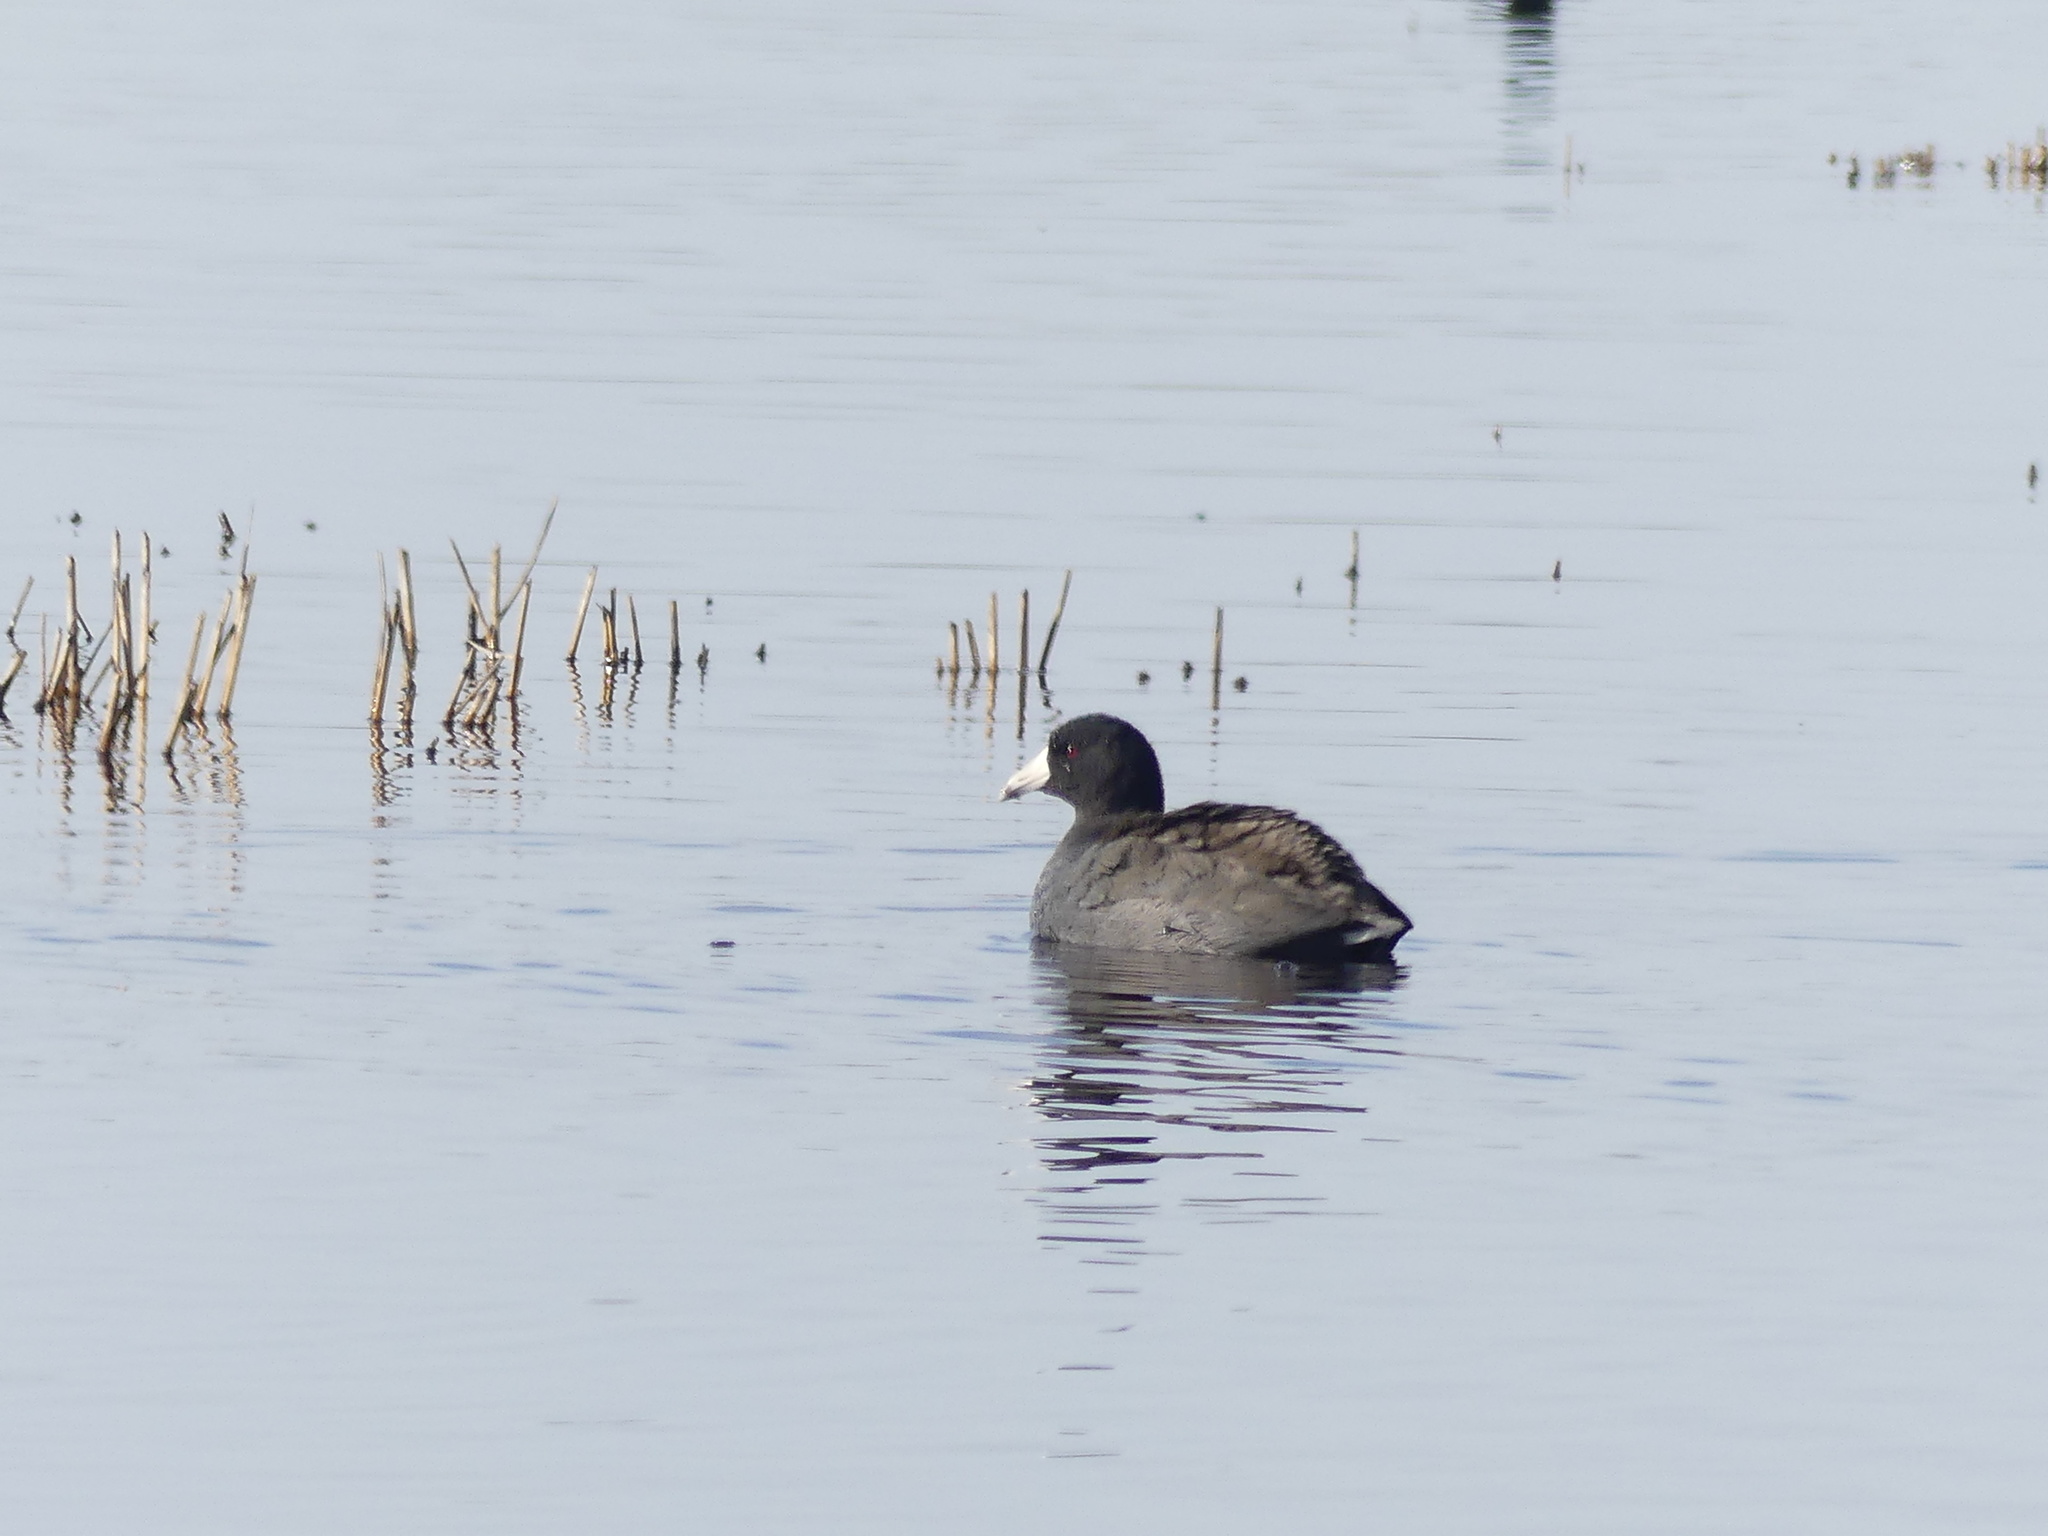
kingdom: Animalia
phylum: Chordata
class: Aves
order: Gruiformes
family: Rallidae
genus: Fulica
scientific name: Fulica americana
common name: American coot
